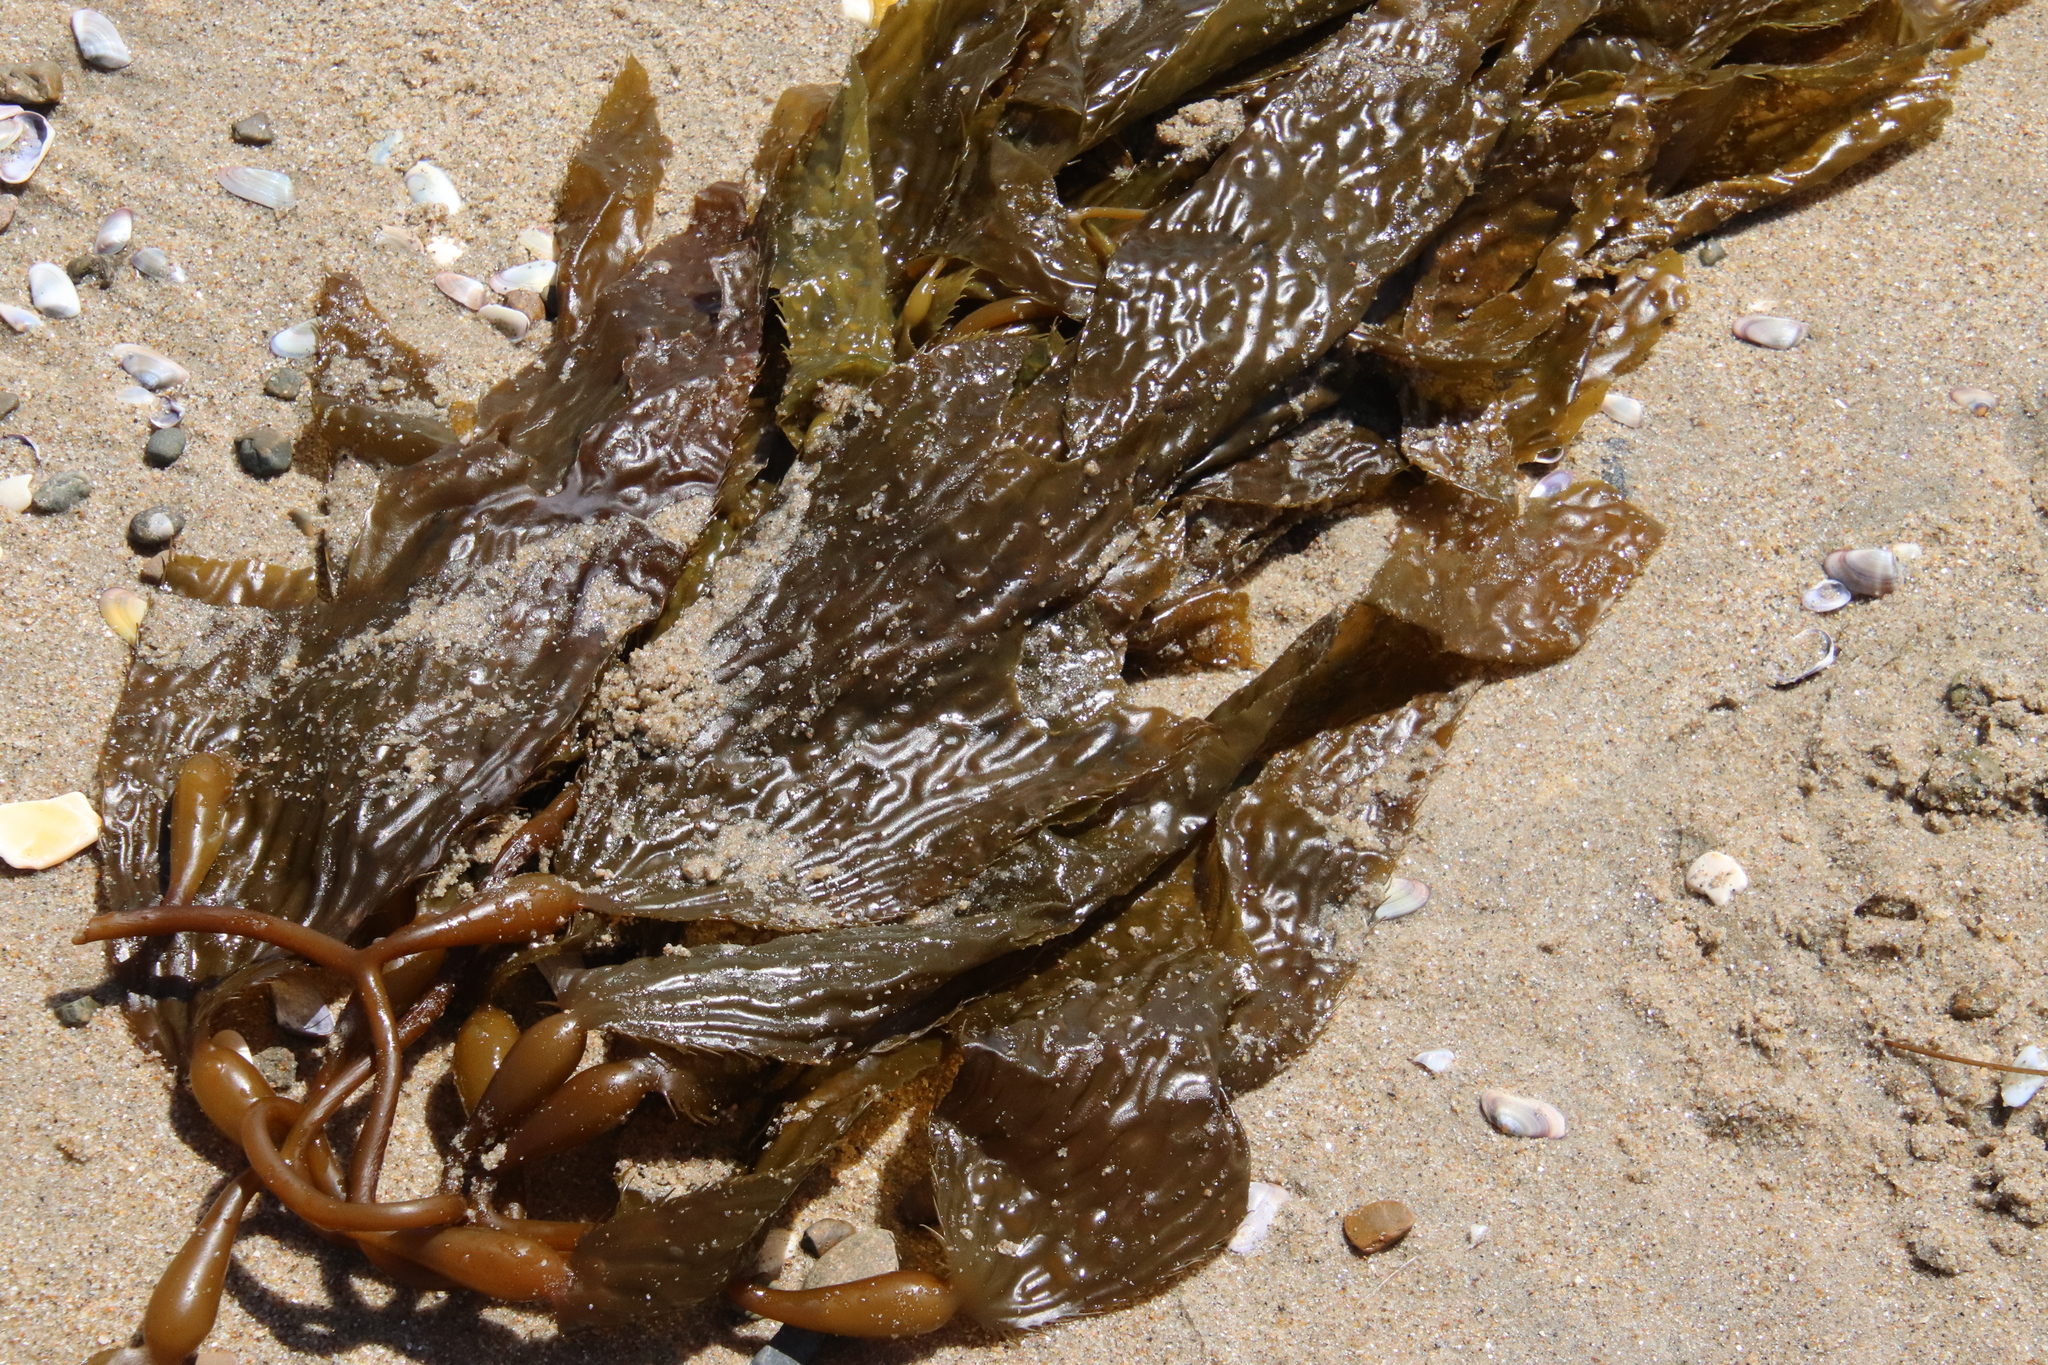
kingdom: Chromista
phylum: Ochrophyta
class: Phaeophyceae
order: Laminariales
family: Laminariaceae
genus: Macrocystis
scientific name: Macrocystis pyrifera
